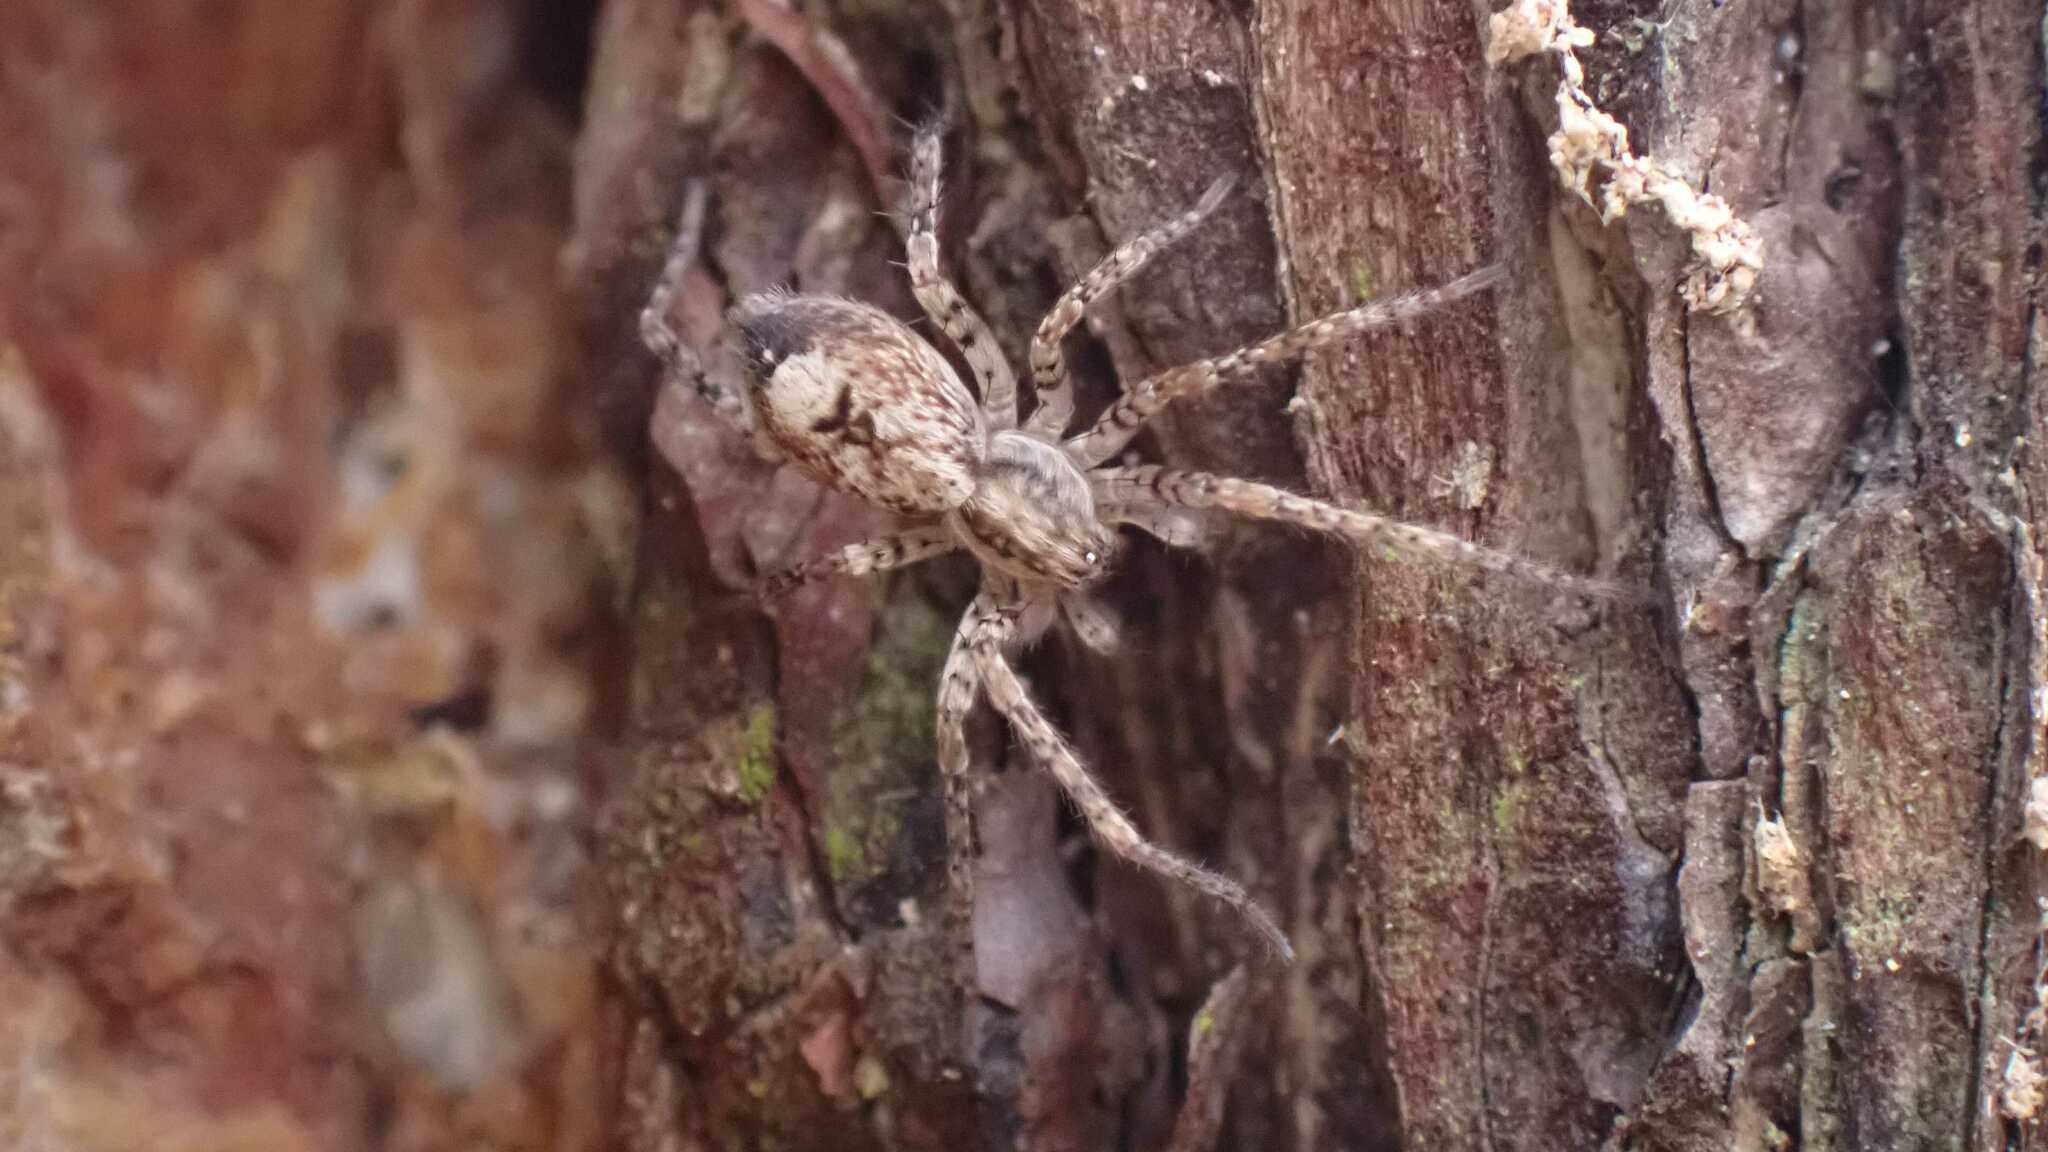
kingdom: Animalia
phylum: Arthropoda
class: Arachnida
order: Araneae
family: Anyphaenidae
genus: Anyphaena
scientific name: Anyphaena accentuata
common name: Buzzing spider
